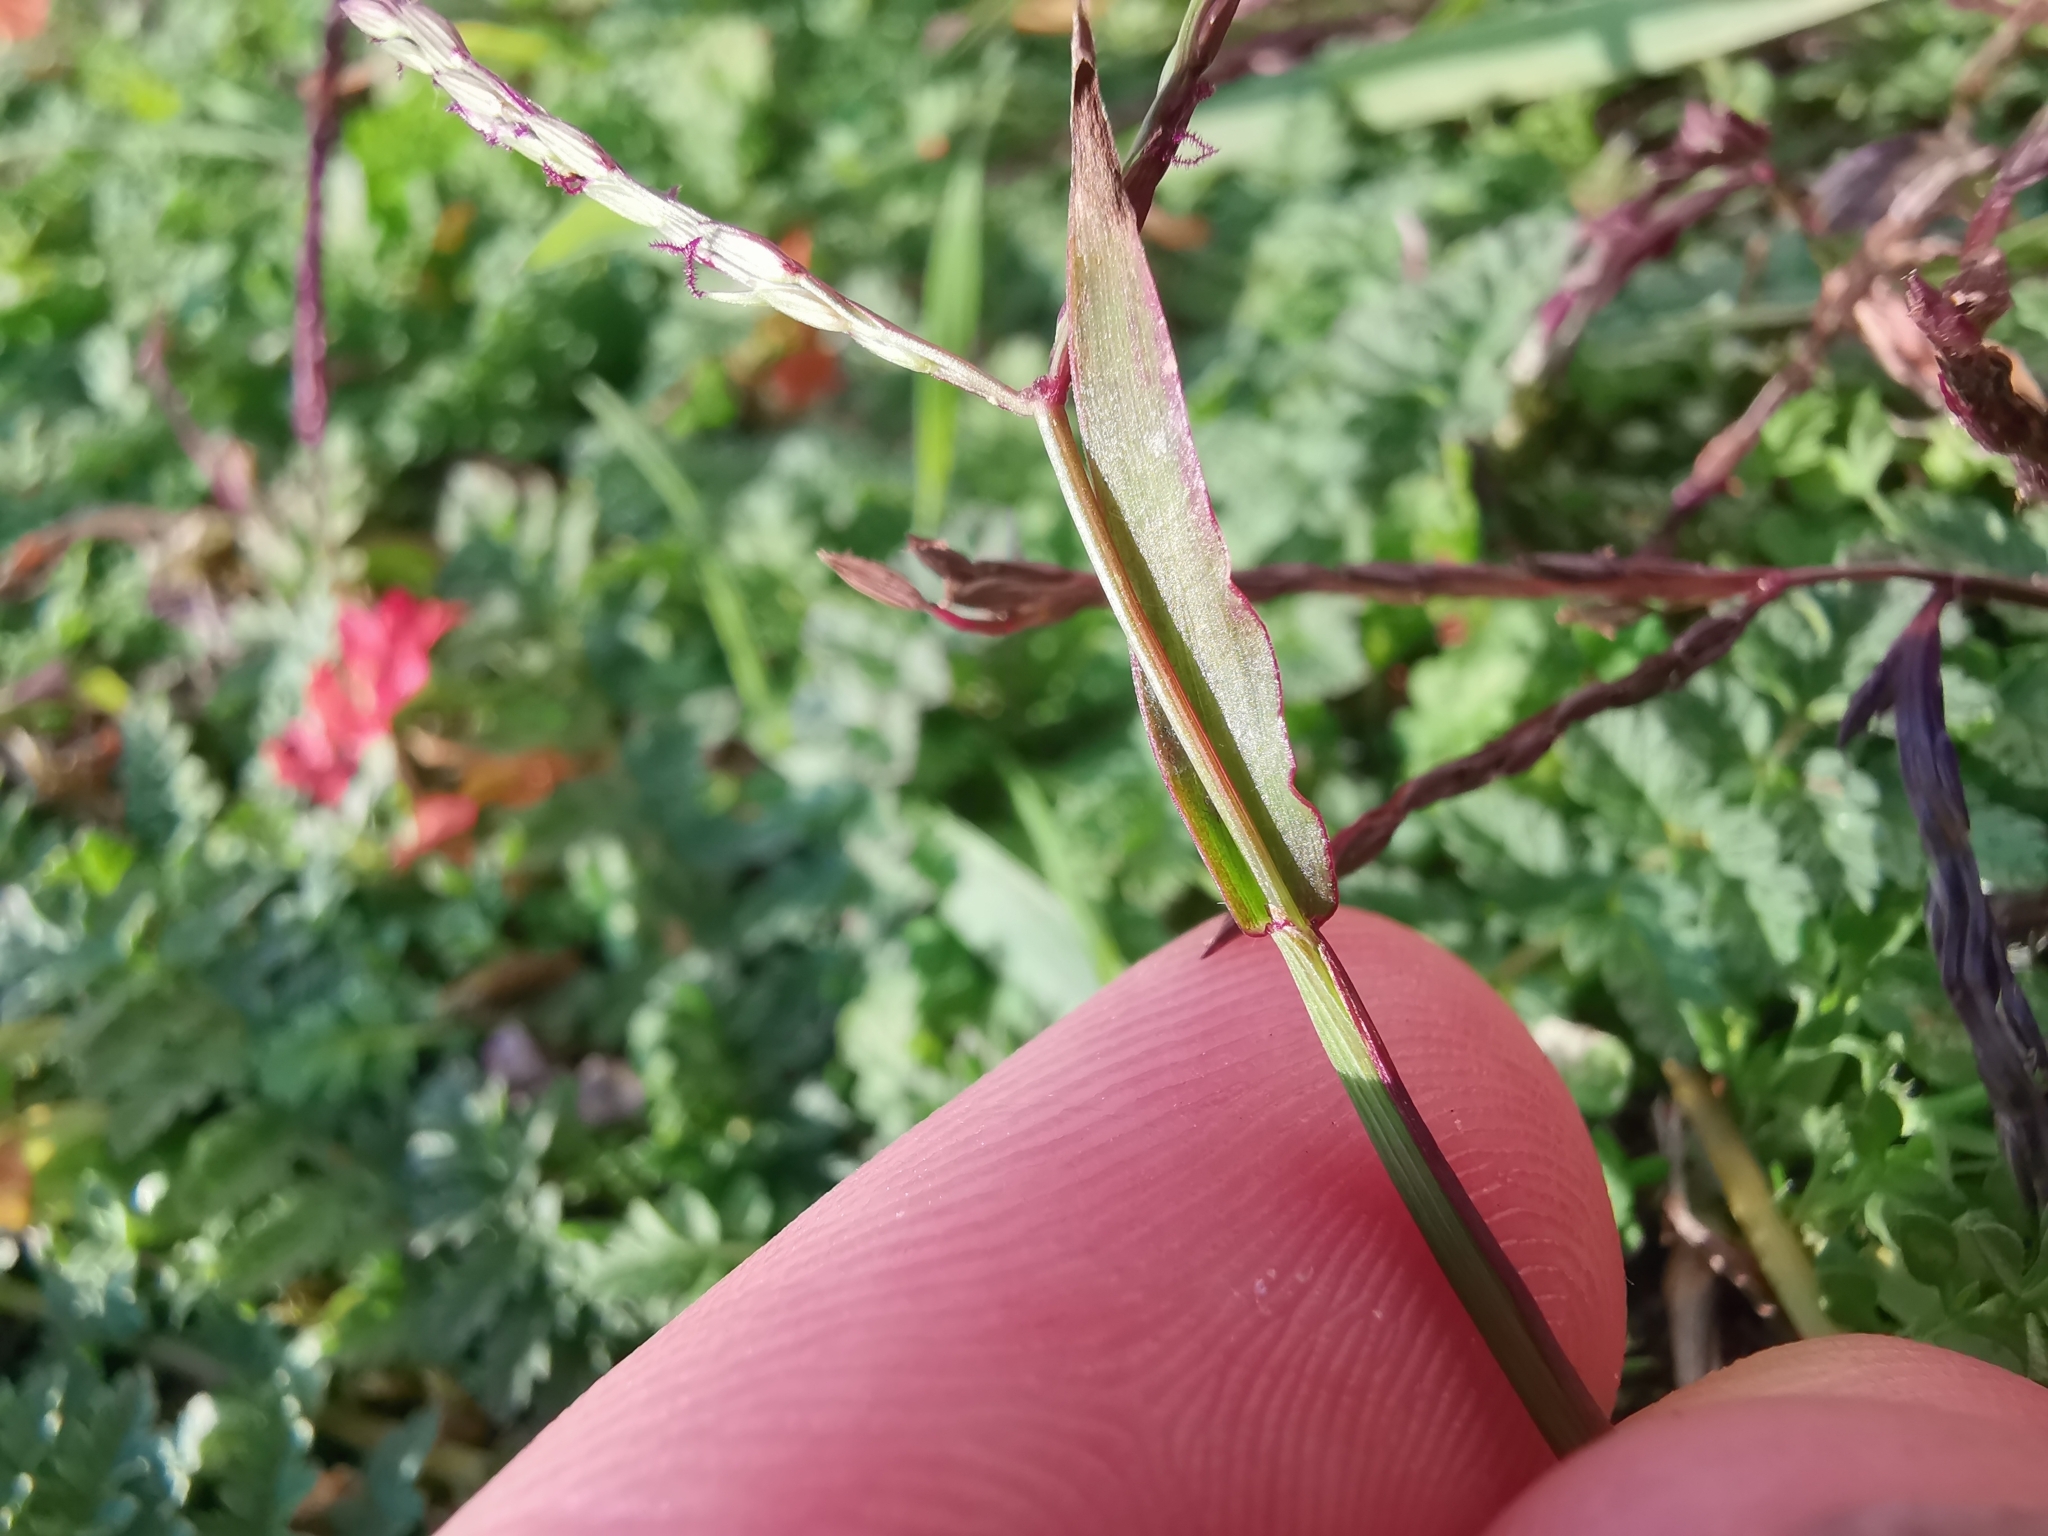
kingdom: Plantae
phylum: Tracheophyta
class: Liliopsida
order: Poales
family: Poaceae
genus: Digitaria
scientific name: Digitaria sanguinalis
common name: Hairy crabgrass
